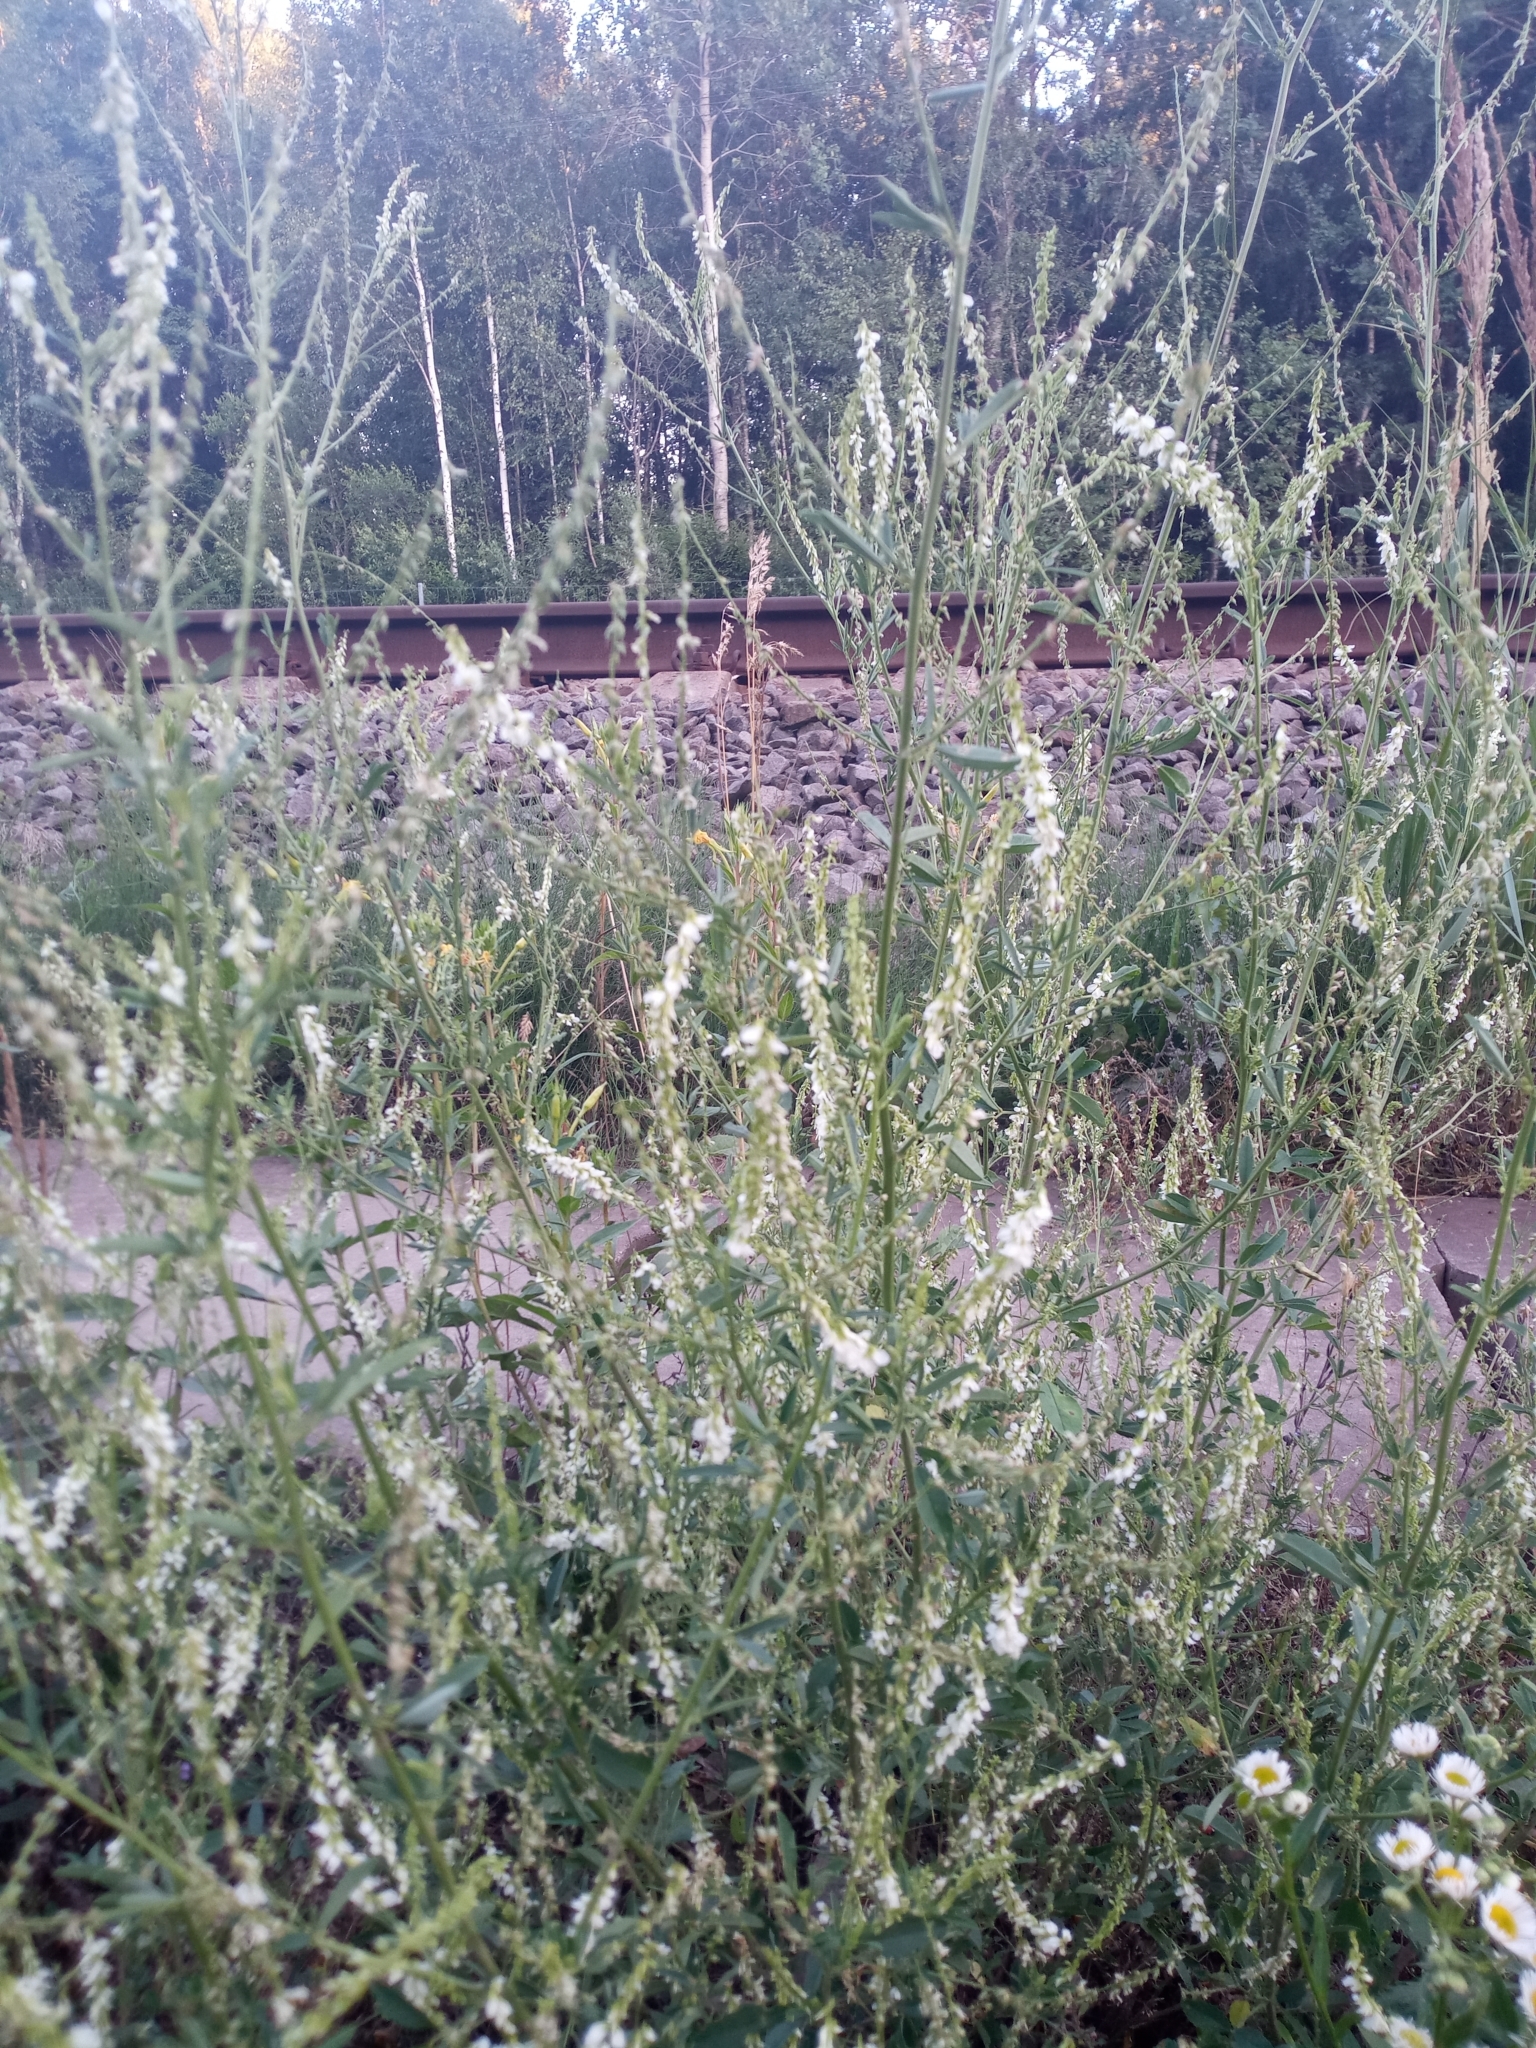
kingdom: Plantae
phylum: Tracheophyta
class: Magnoliopsida
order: Fabales
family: Fabaceae
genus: Melilotus
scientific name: Melilotus albus
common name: White melilot
